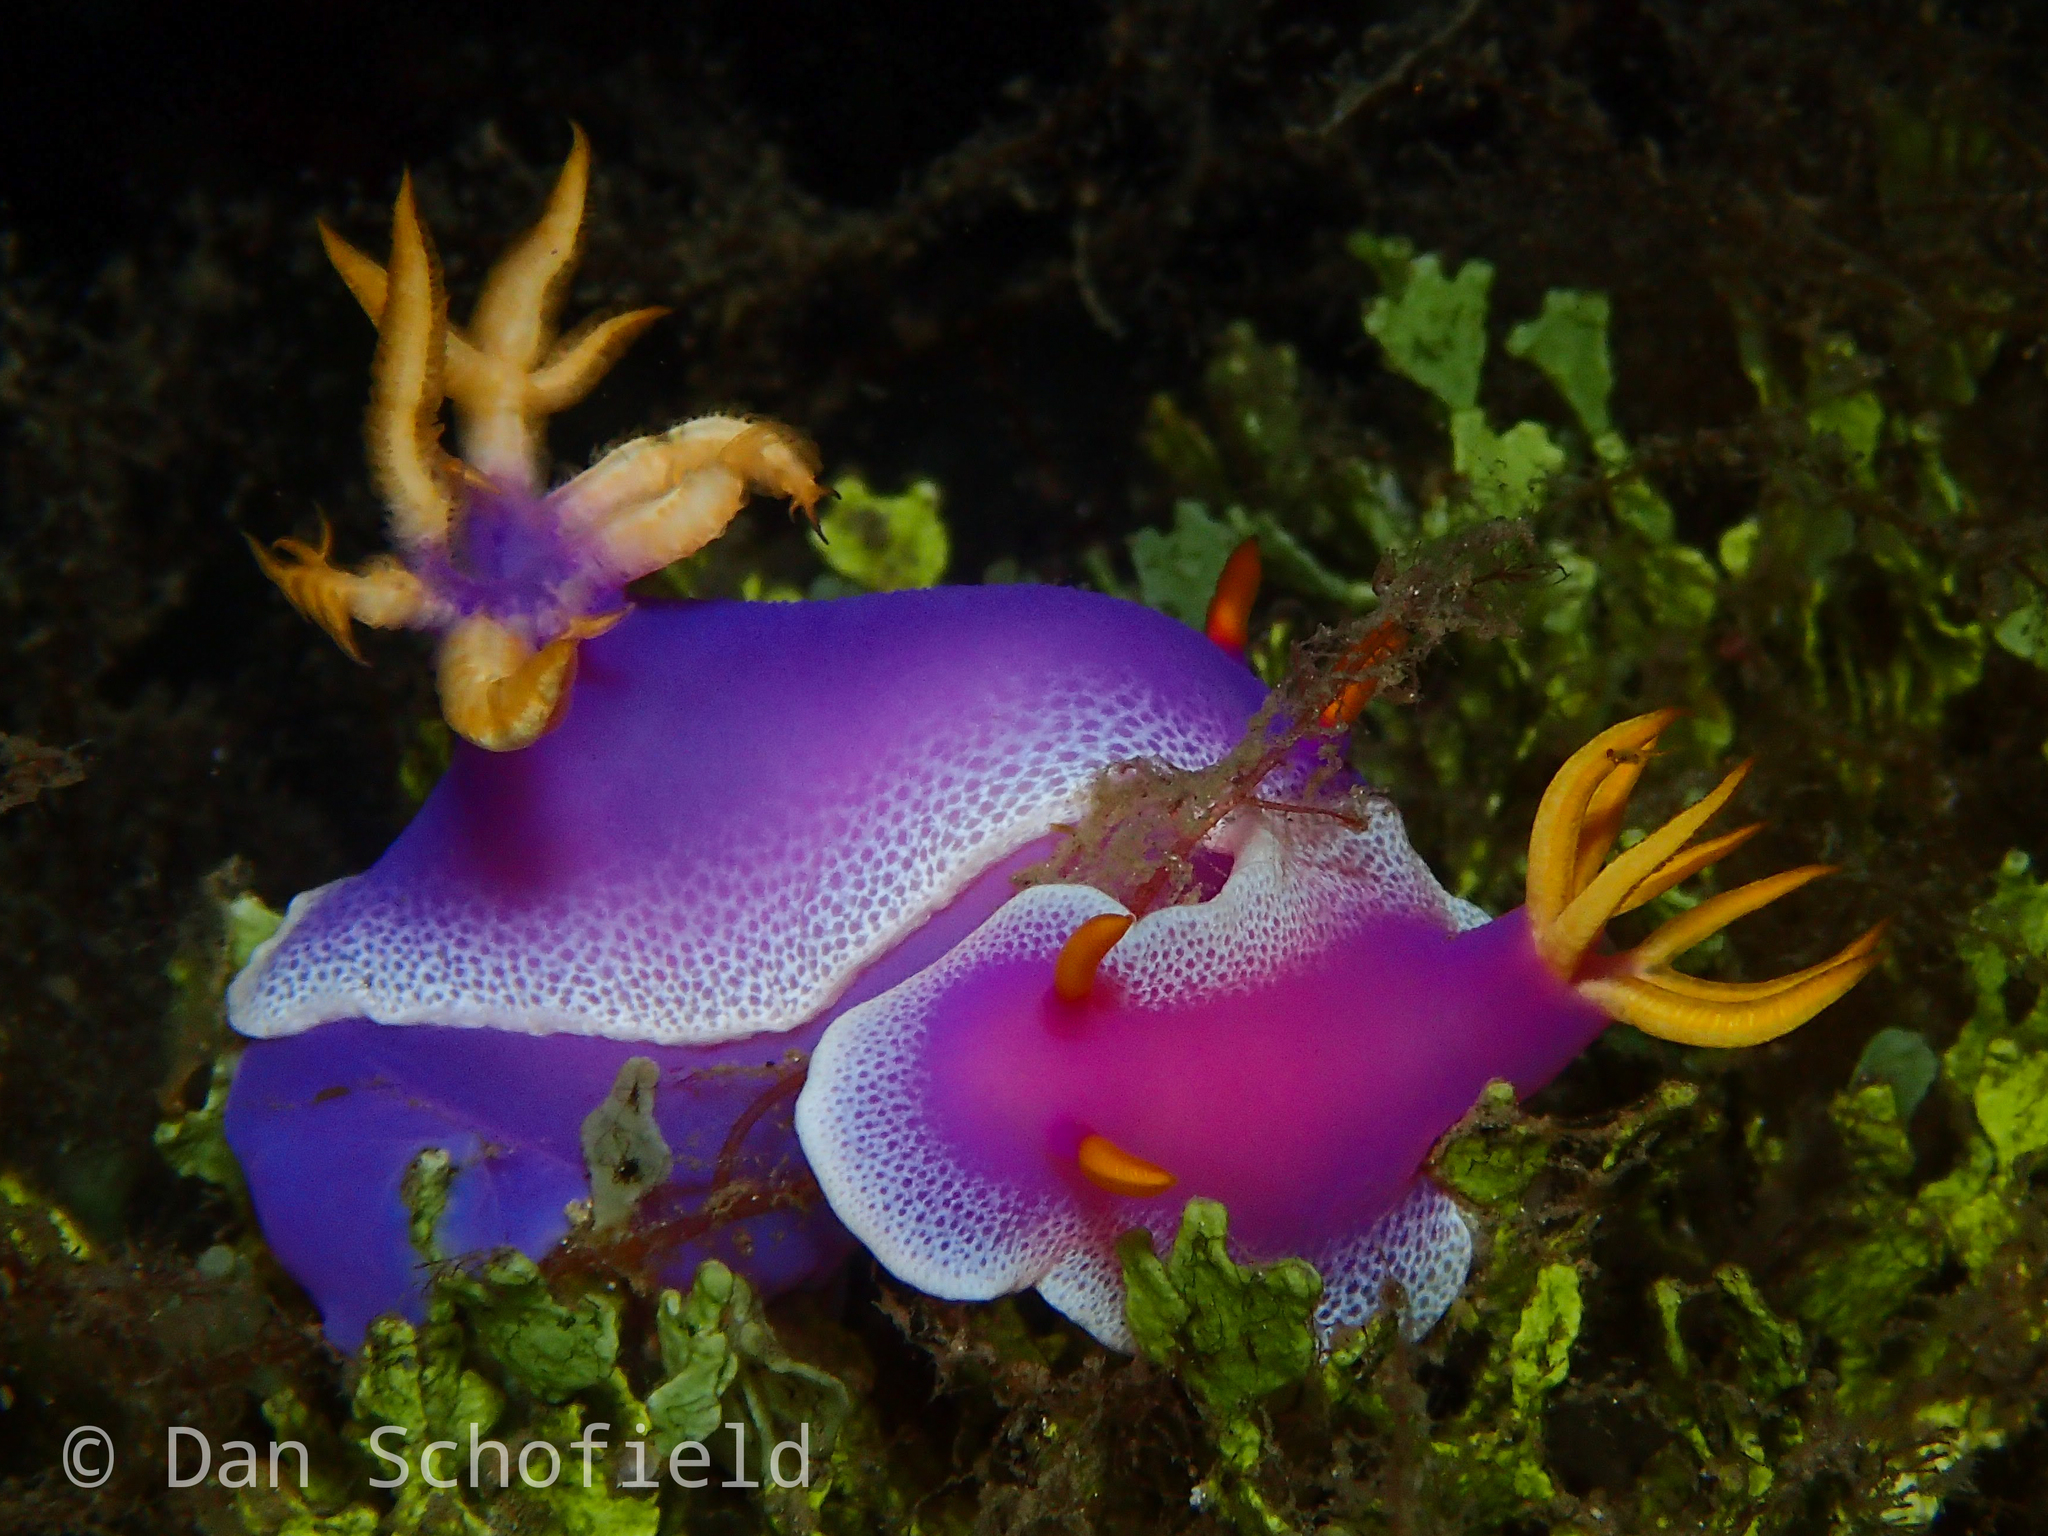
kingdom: Animalia
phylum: Mollusca
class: Gastropoda
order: Nudibranchia
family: Chromodorididae
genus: Hypselodoris
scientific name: Hypselodoris apolegma
